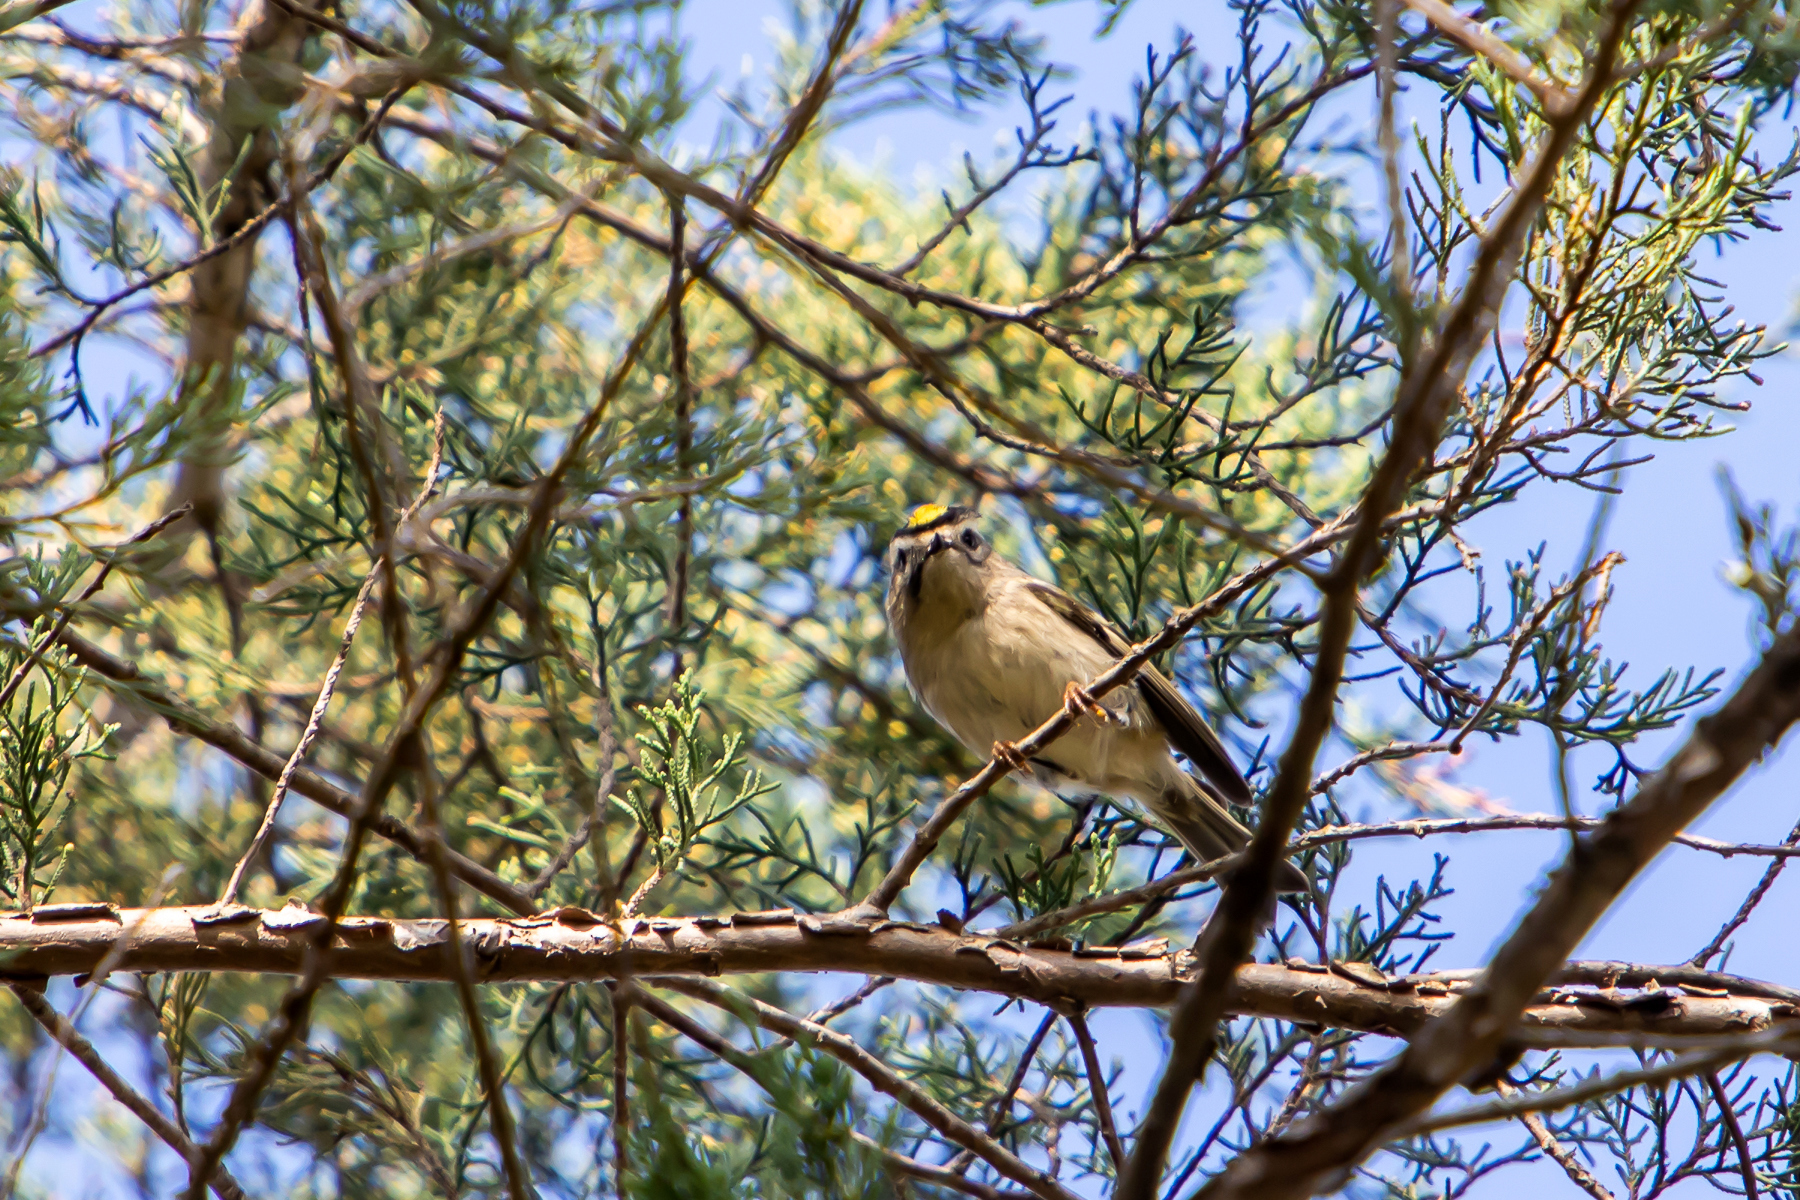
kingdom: Animalia
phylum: Chordata
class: Aves
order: Passeriformes
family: Regulidae
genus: Regulus
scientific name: Regulus satrapa
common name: Golden-crowned kinglet
